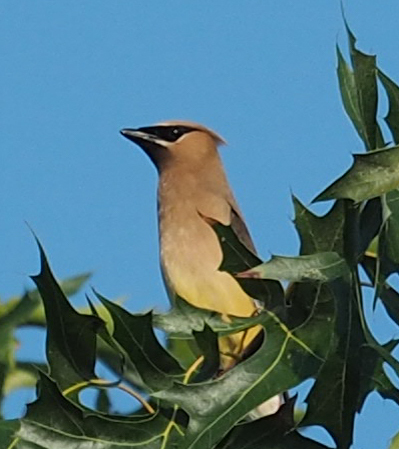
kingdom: Animalia
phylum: Chordata
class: Aves
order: Passeriformes
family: Bombycillidae
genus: Bombycilla
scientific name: Bombycilla cedrorum
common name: Cedar waxwing
